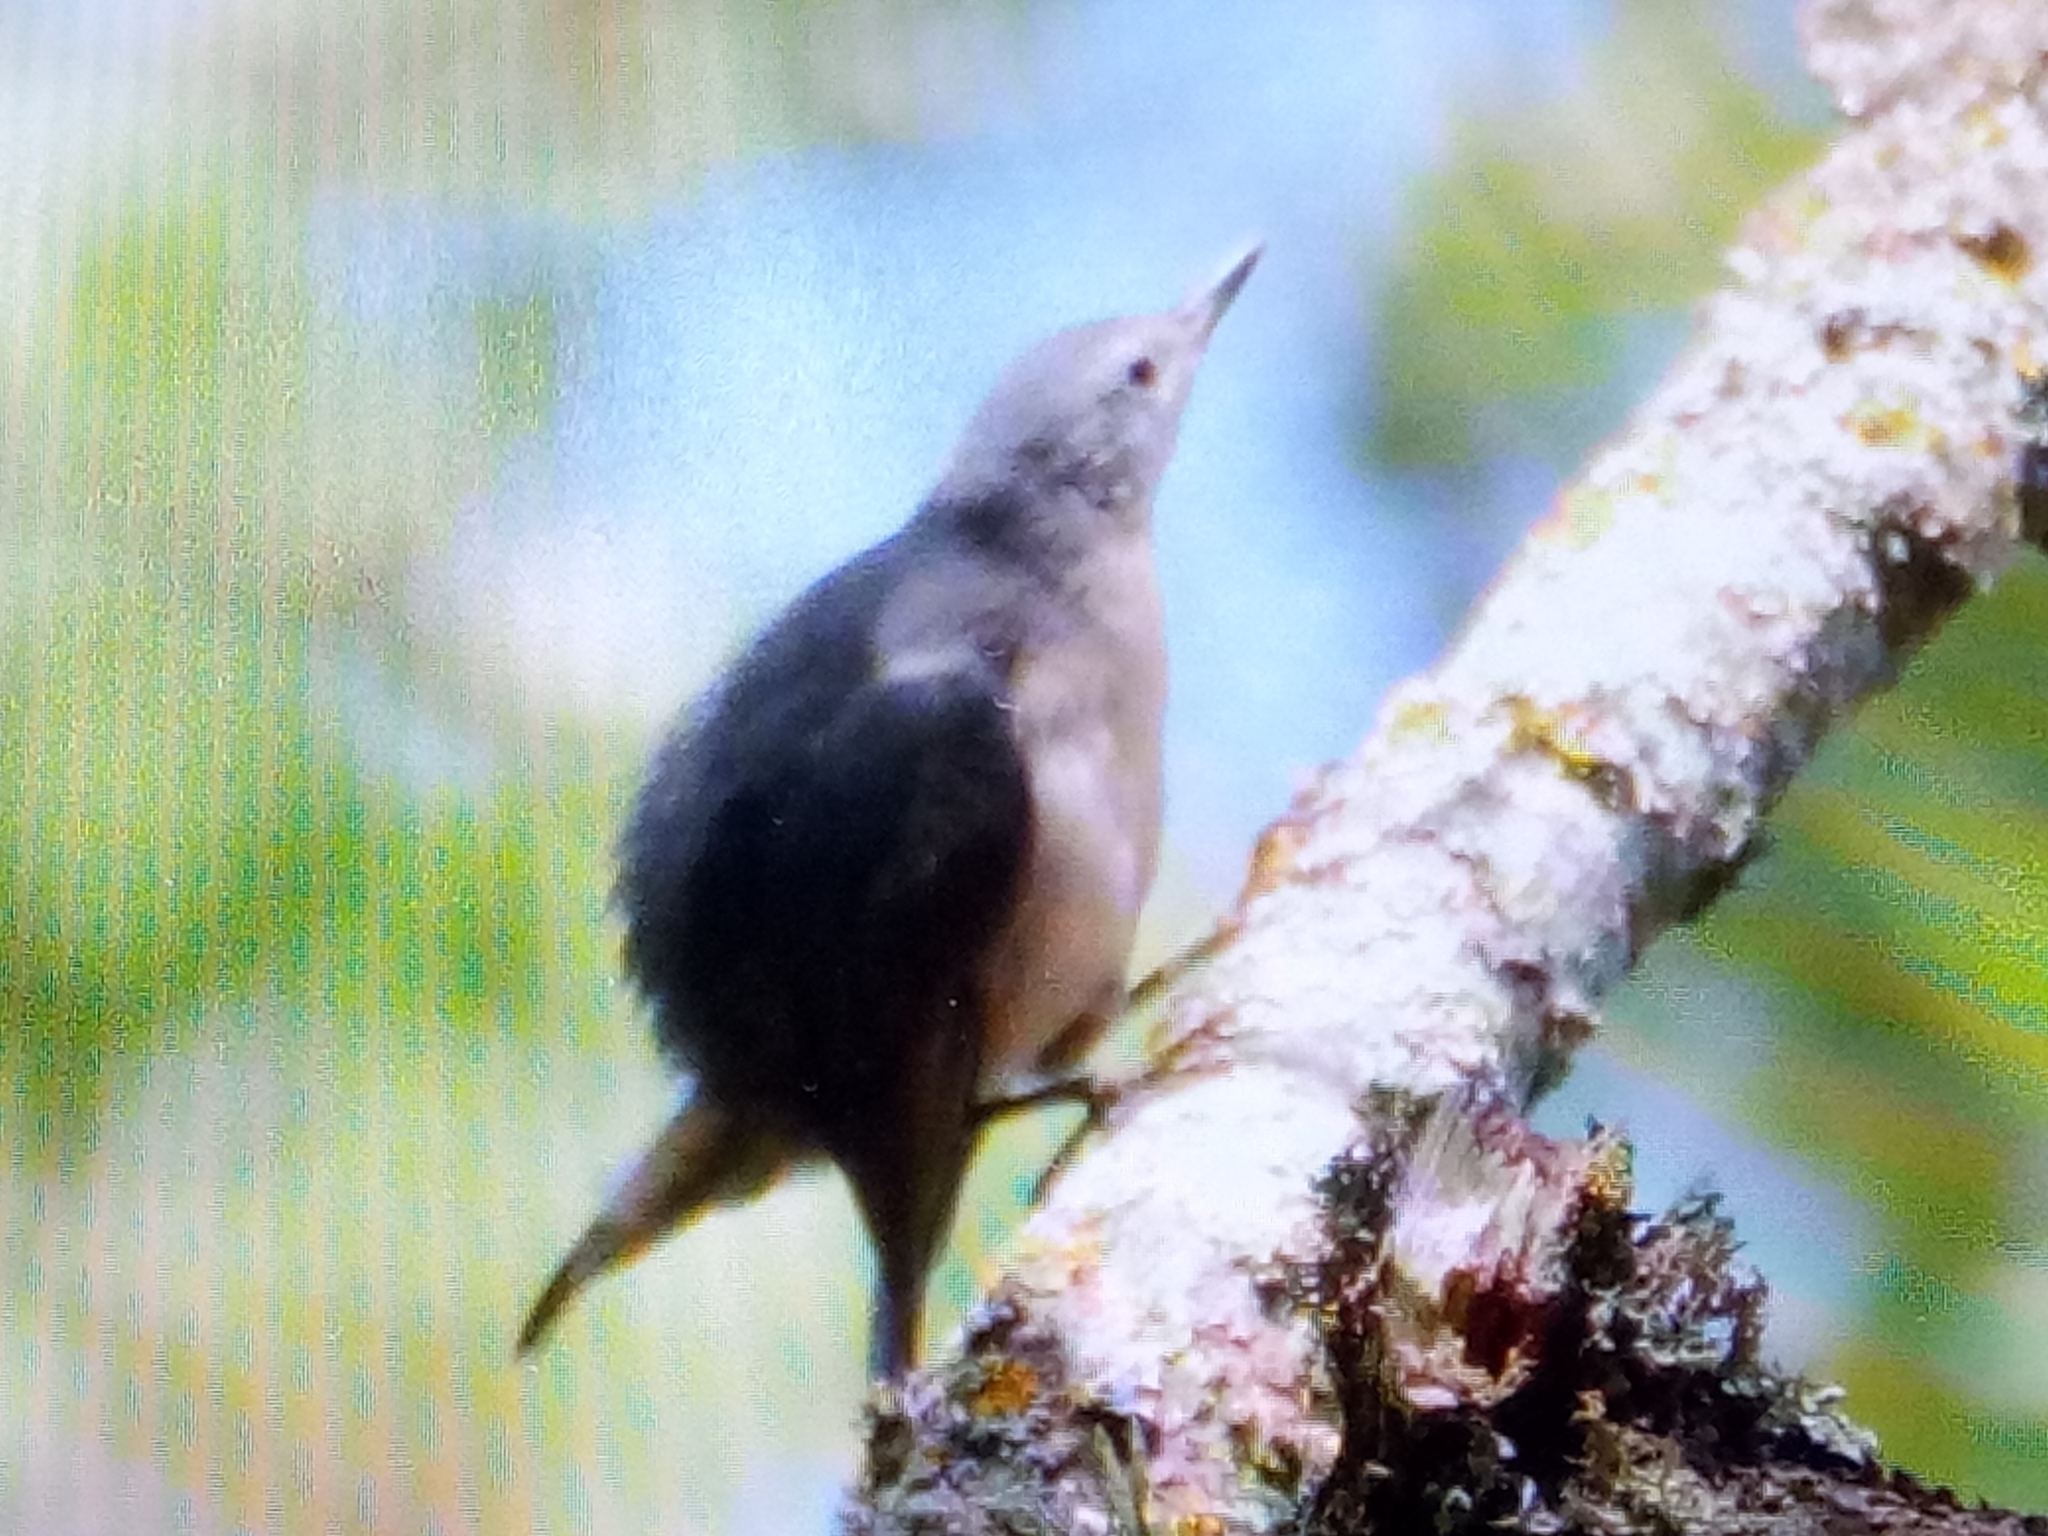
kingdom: Animalia
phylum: Chordata
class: Aves
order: Passeriformes
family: Sittidae
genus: Sitta
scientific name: Sitta ledanti
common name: Algerian nuthatch
